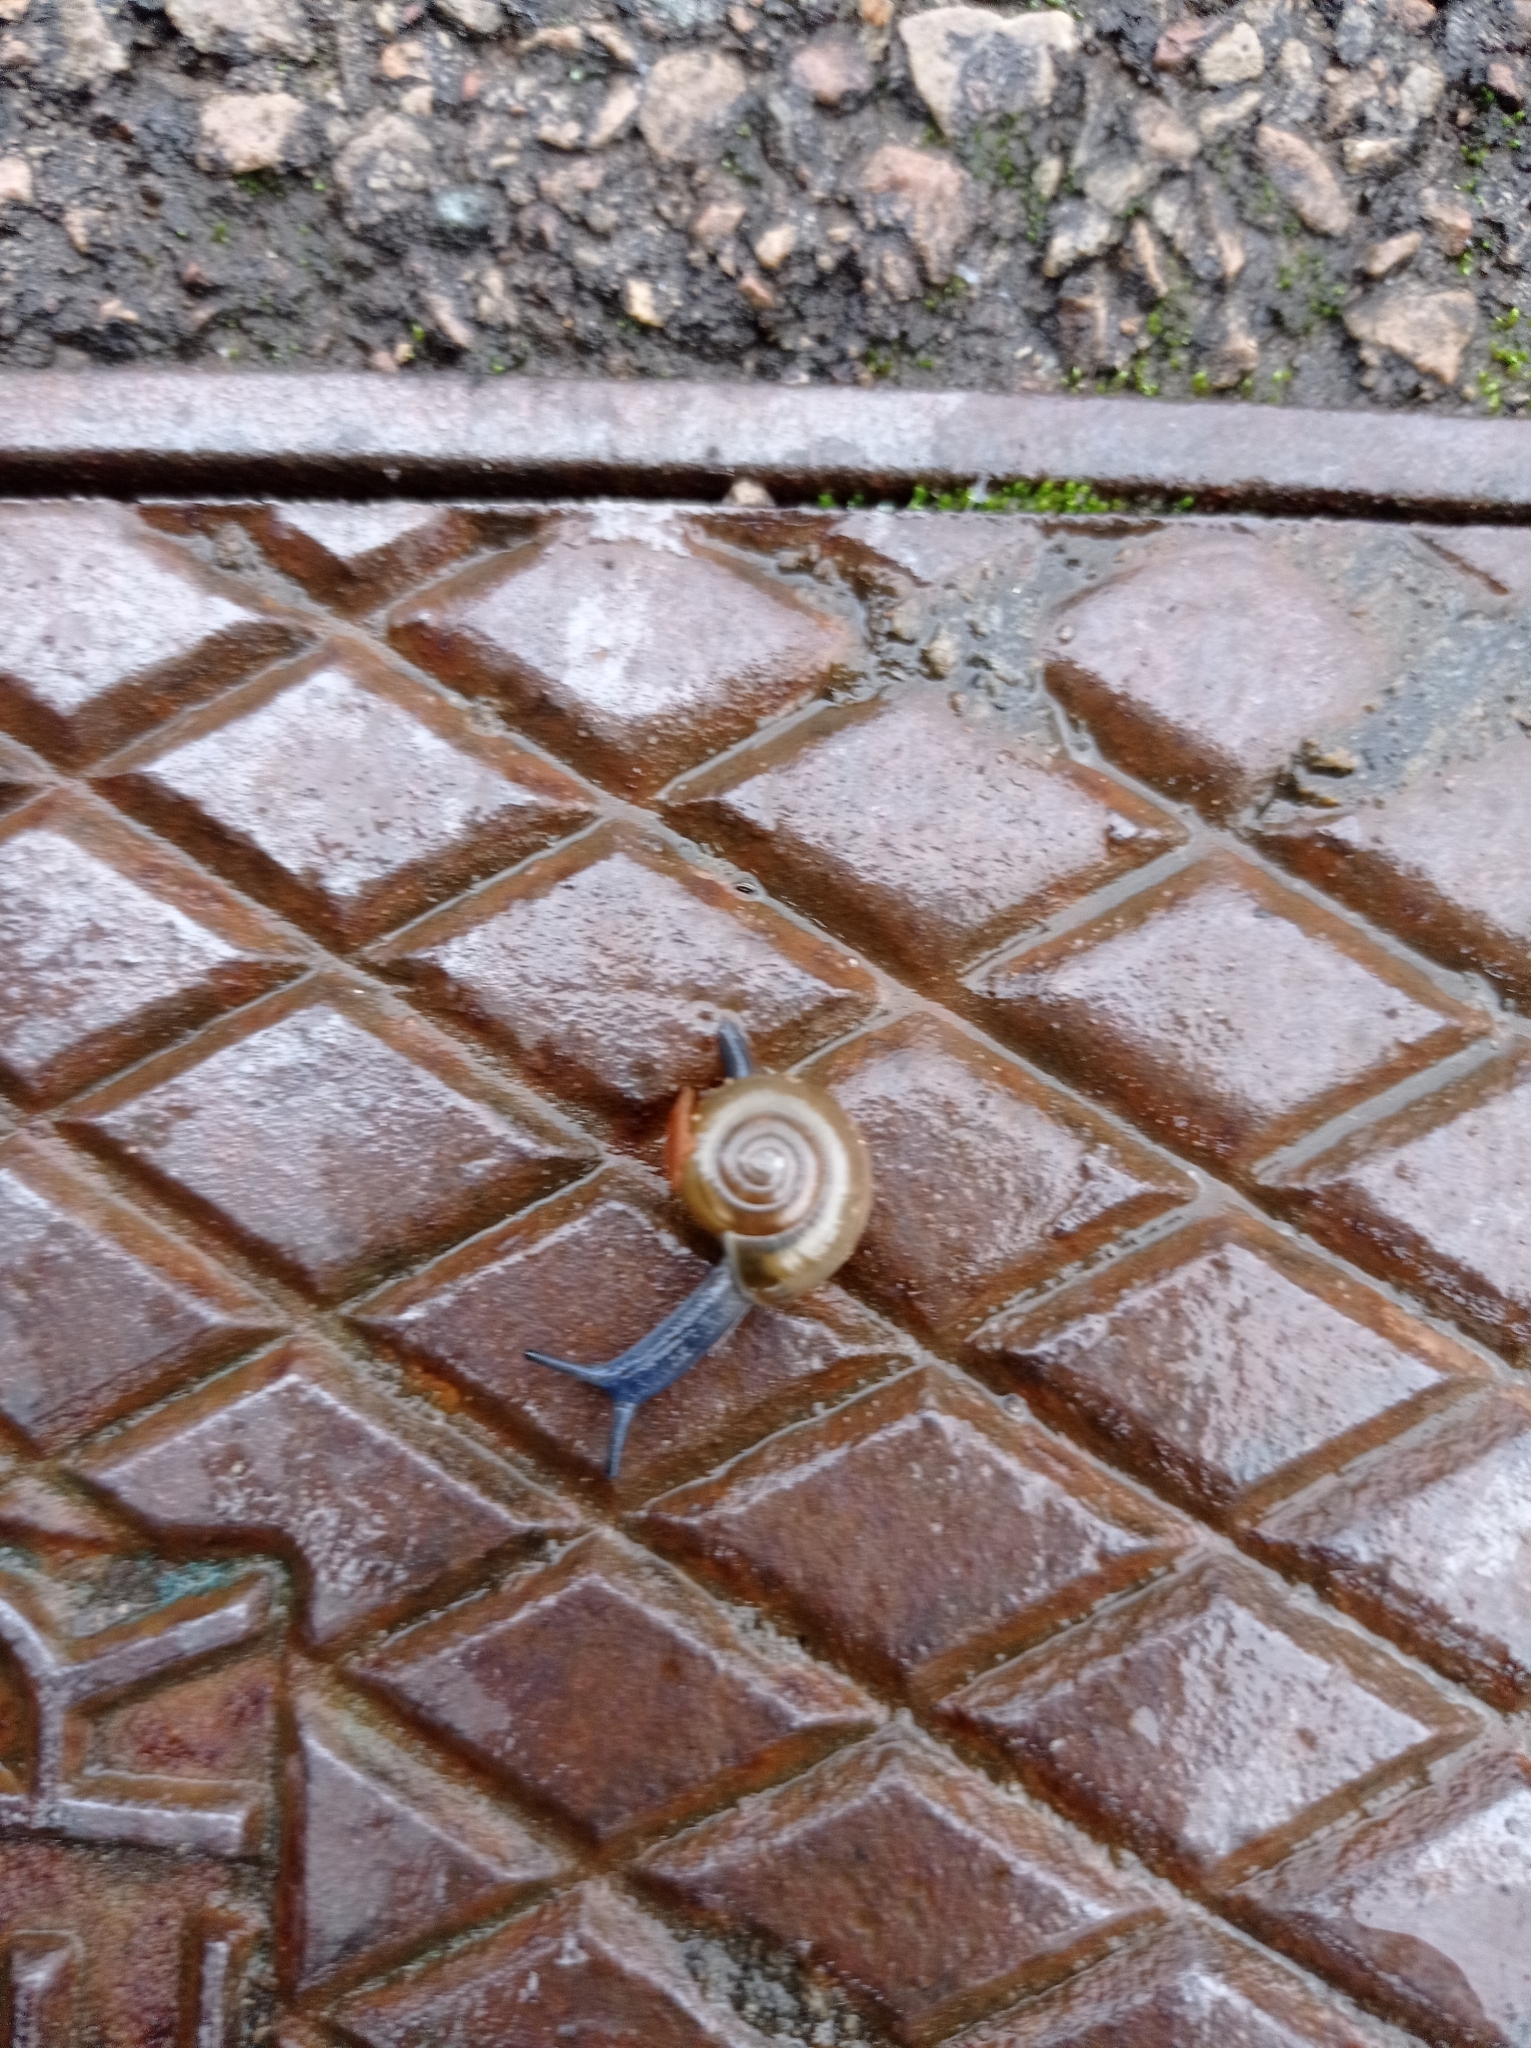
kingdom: Animalia
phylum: Mollusca
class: Gastropoda
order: Stylommatophora
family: Oxychilidae
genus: Oxychilus
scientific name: Oxychilus draparnaudi
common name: Draparnaud's glass snail
